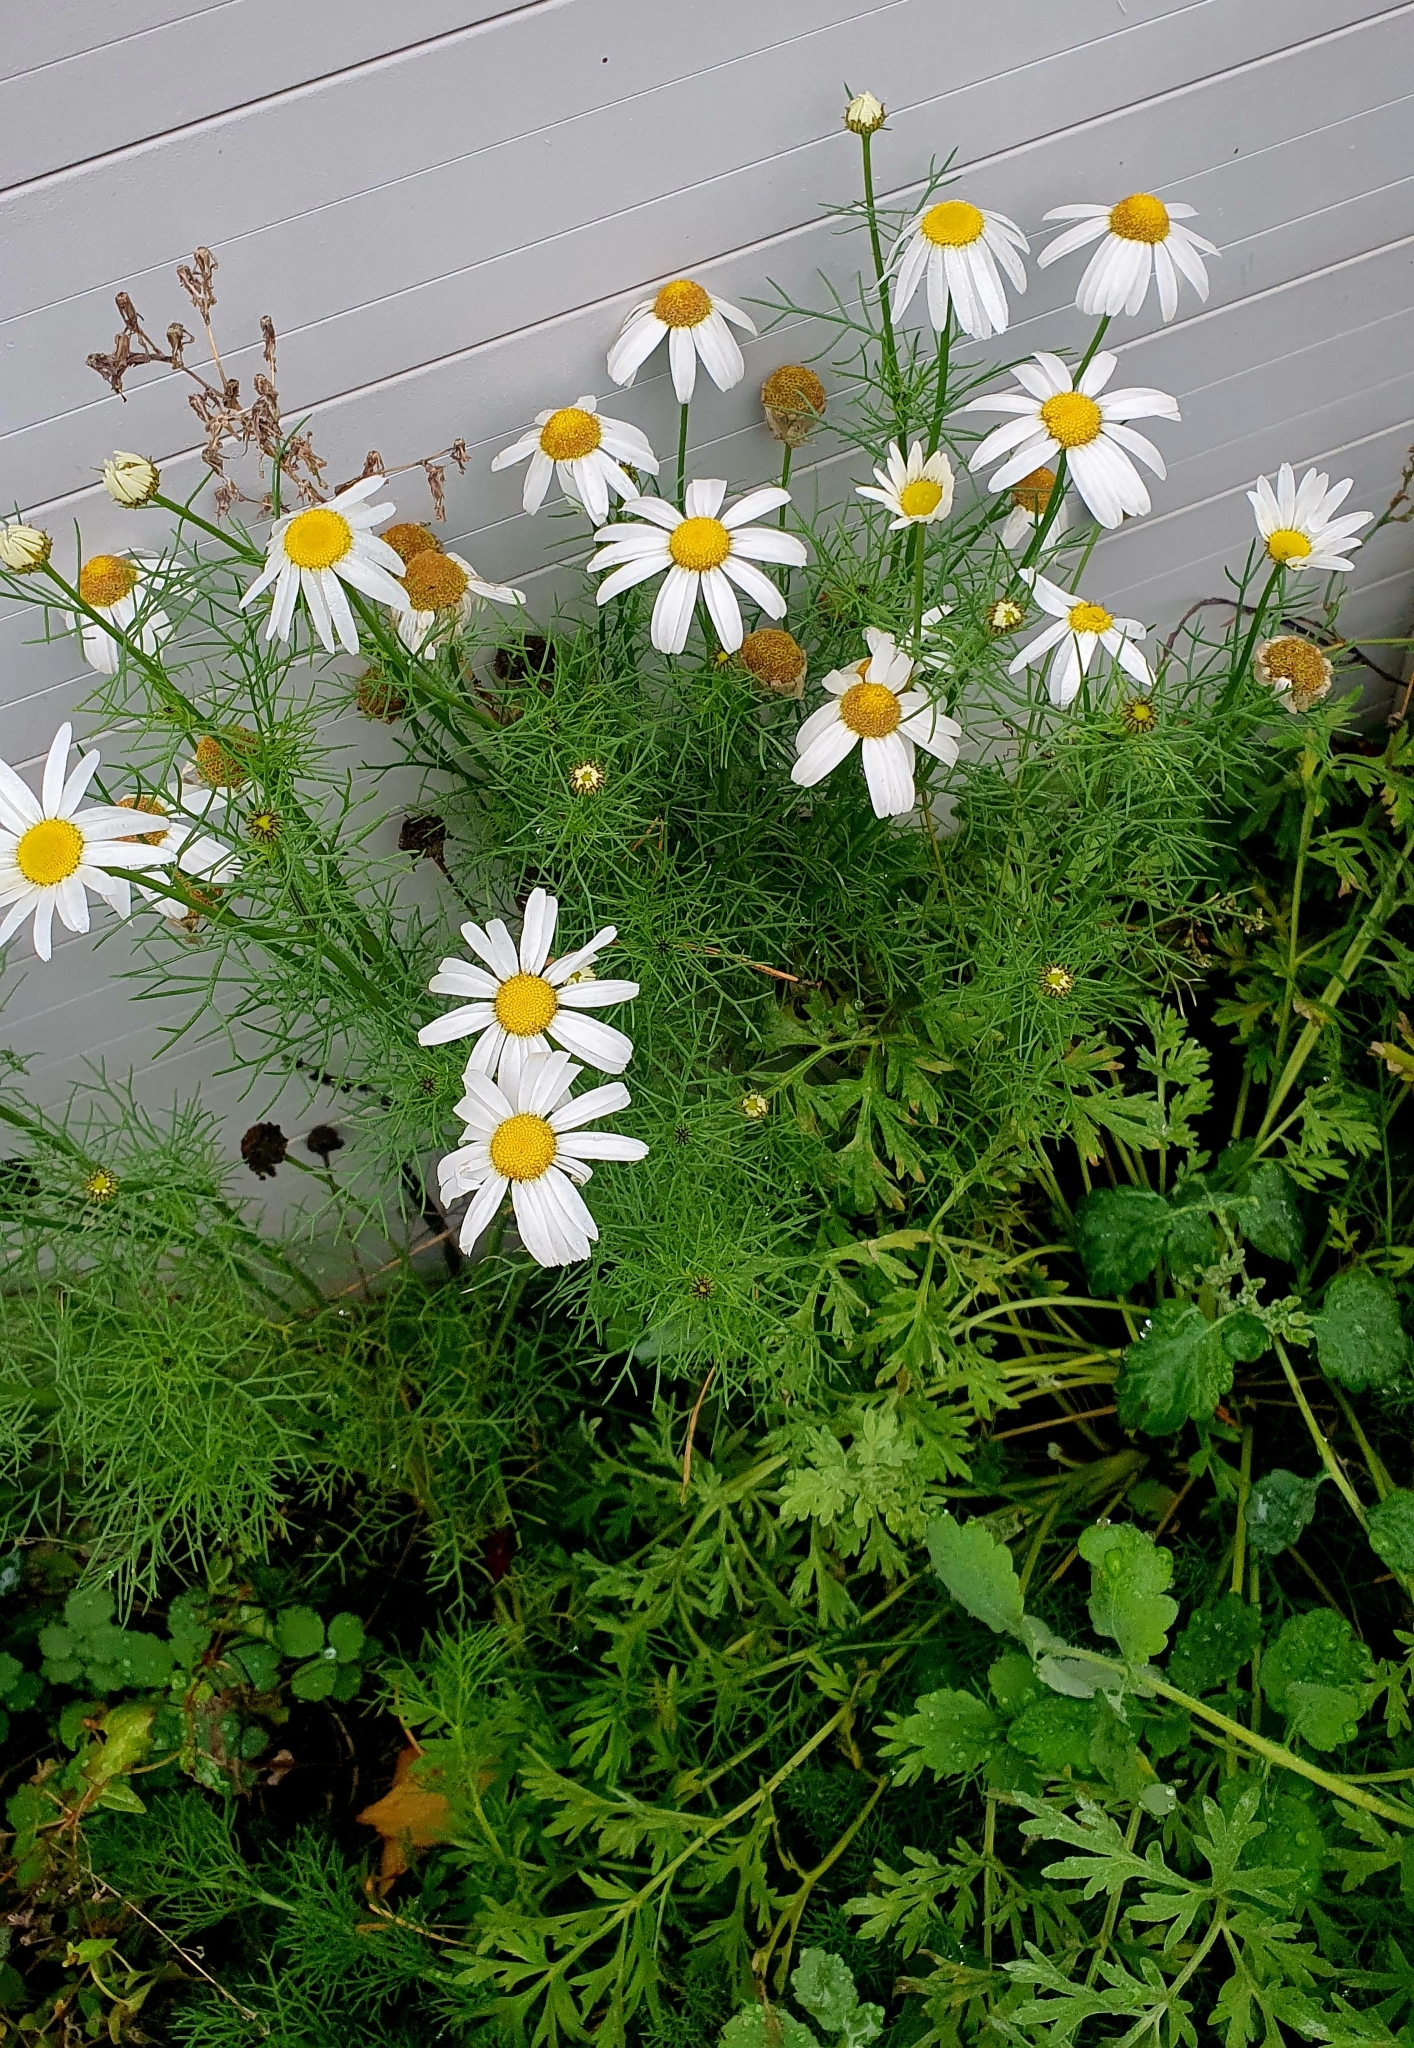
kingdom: Plantae
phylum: Tracheophyta
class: Magnoliopsida
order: Asterales
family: Asteraceae
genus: Tripleurospermum
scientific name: Tripleurospermum inodorum
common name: Scentless mayweed
